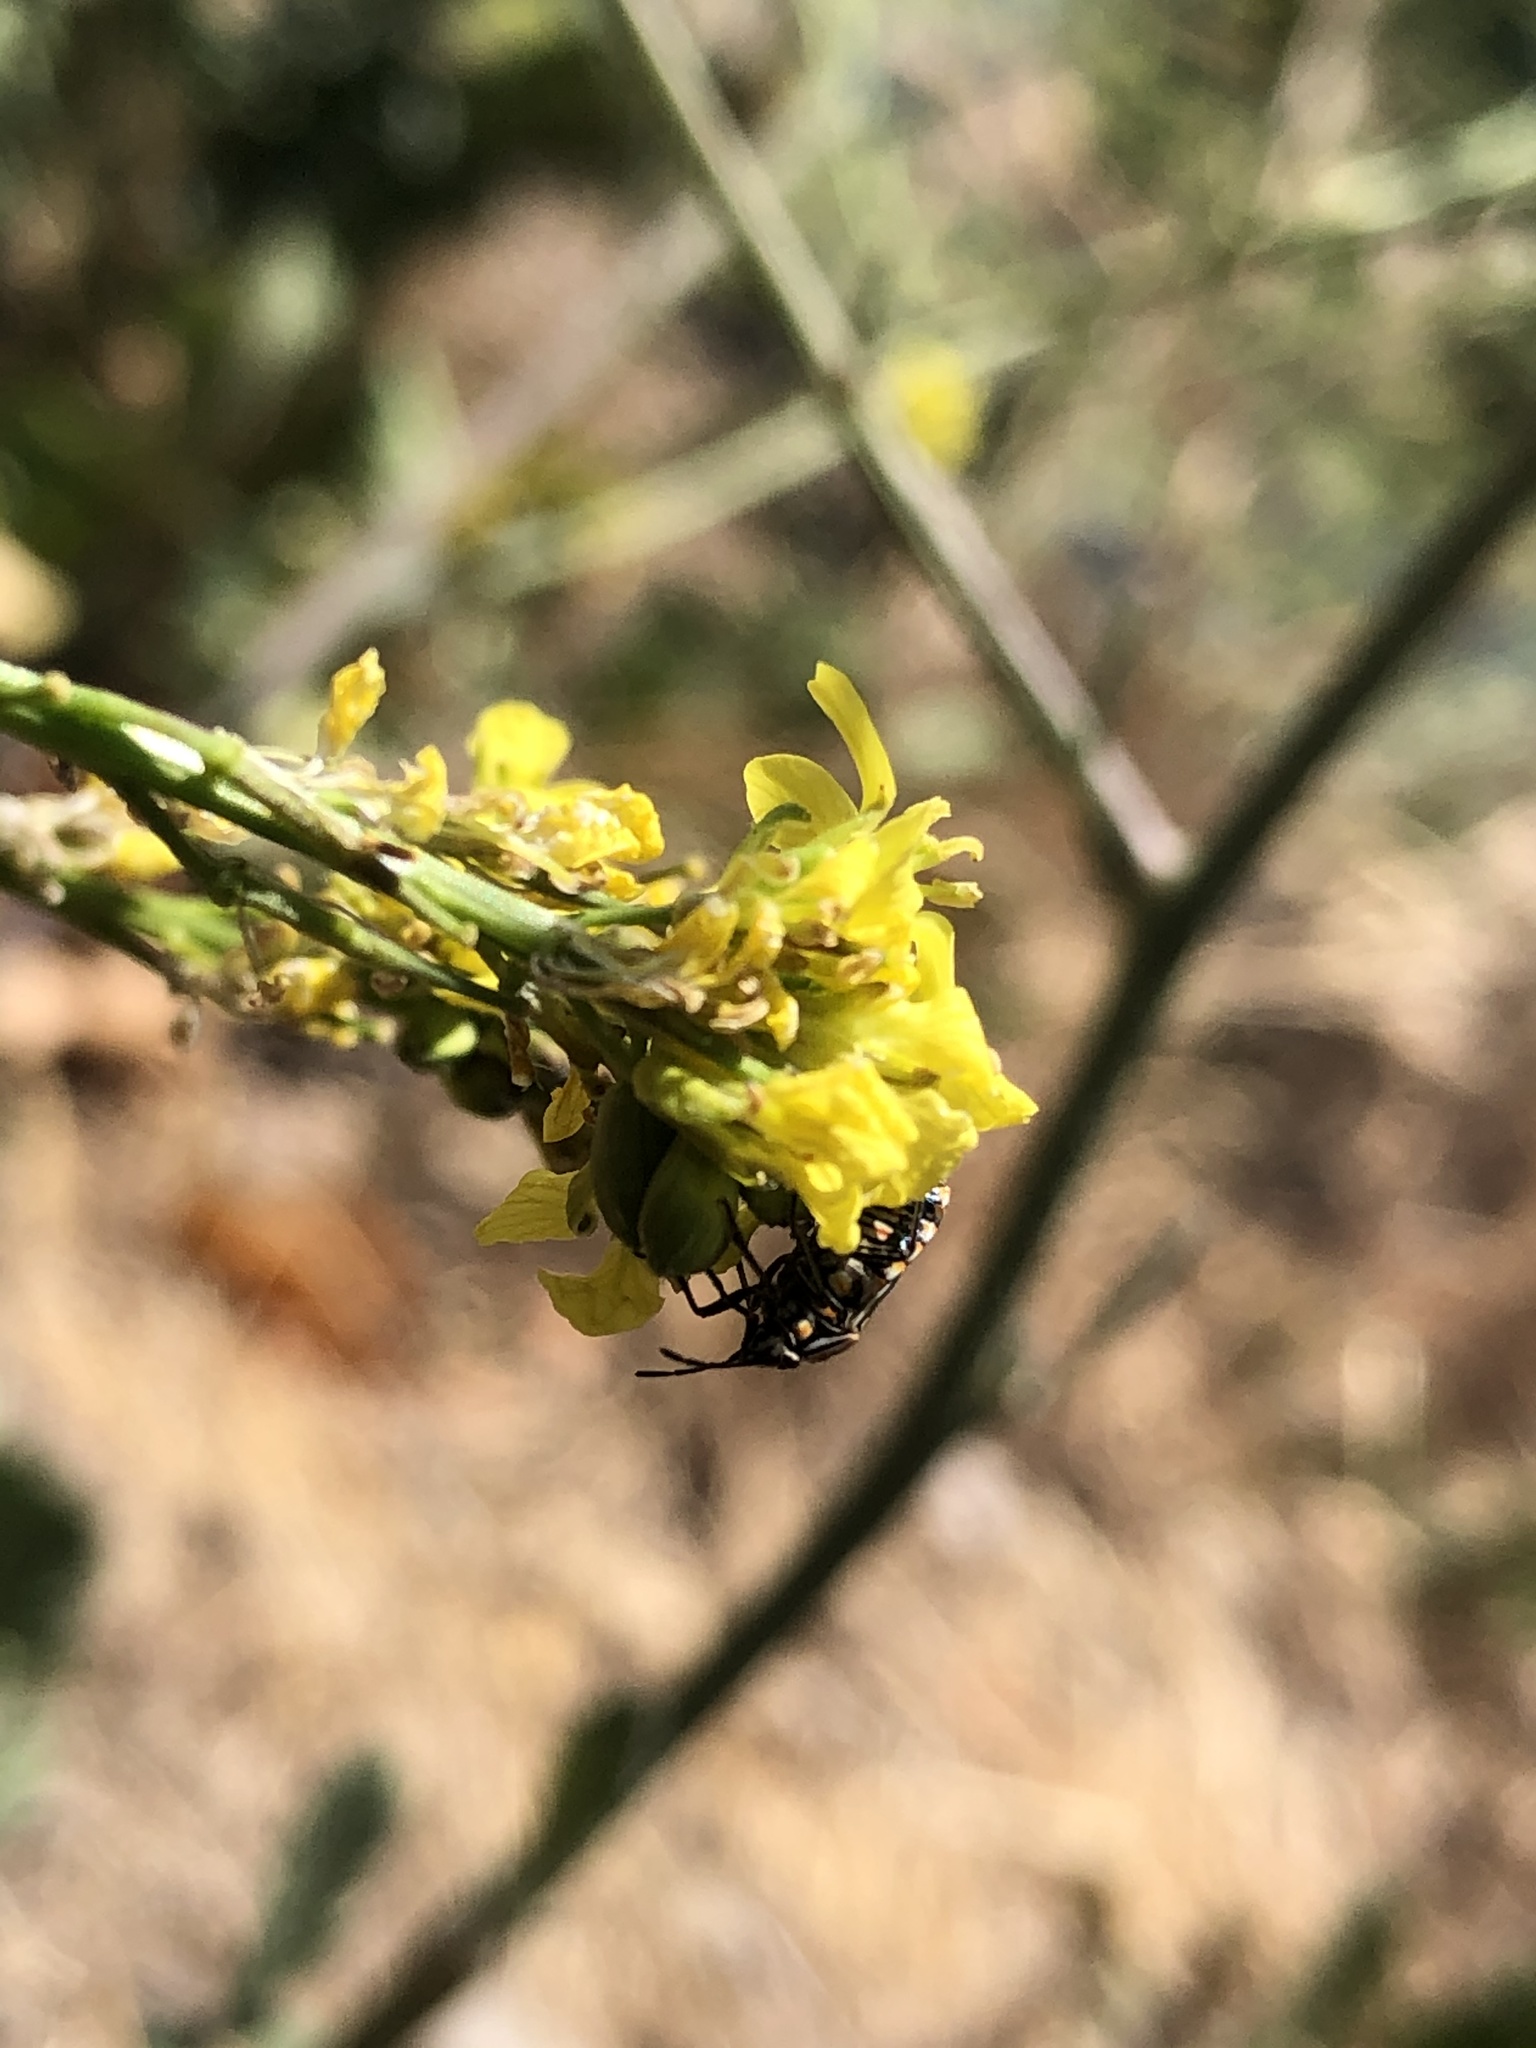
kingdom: Animalia
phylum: Arthropoda
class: Insecta
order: Hemiptera
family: Pentatomidae
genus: Bagrada
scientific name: Bagrada hilaris
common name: Bagrada bug
